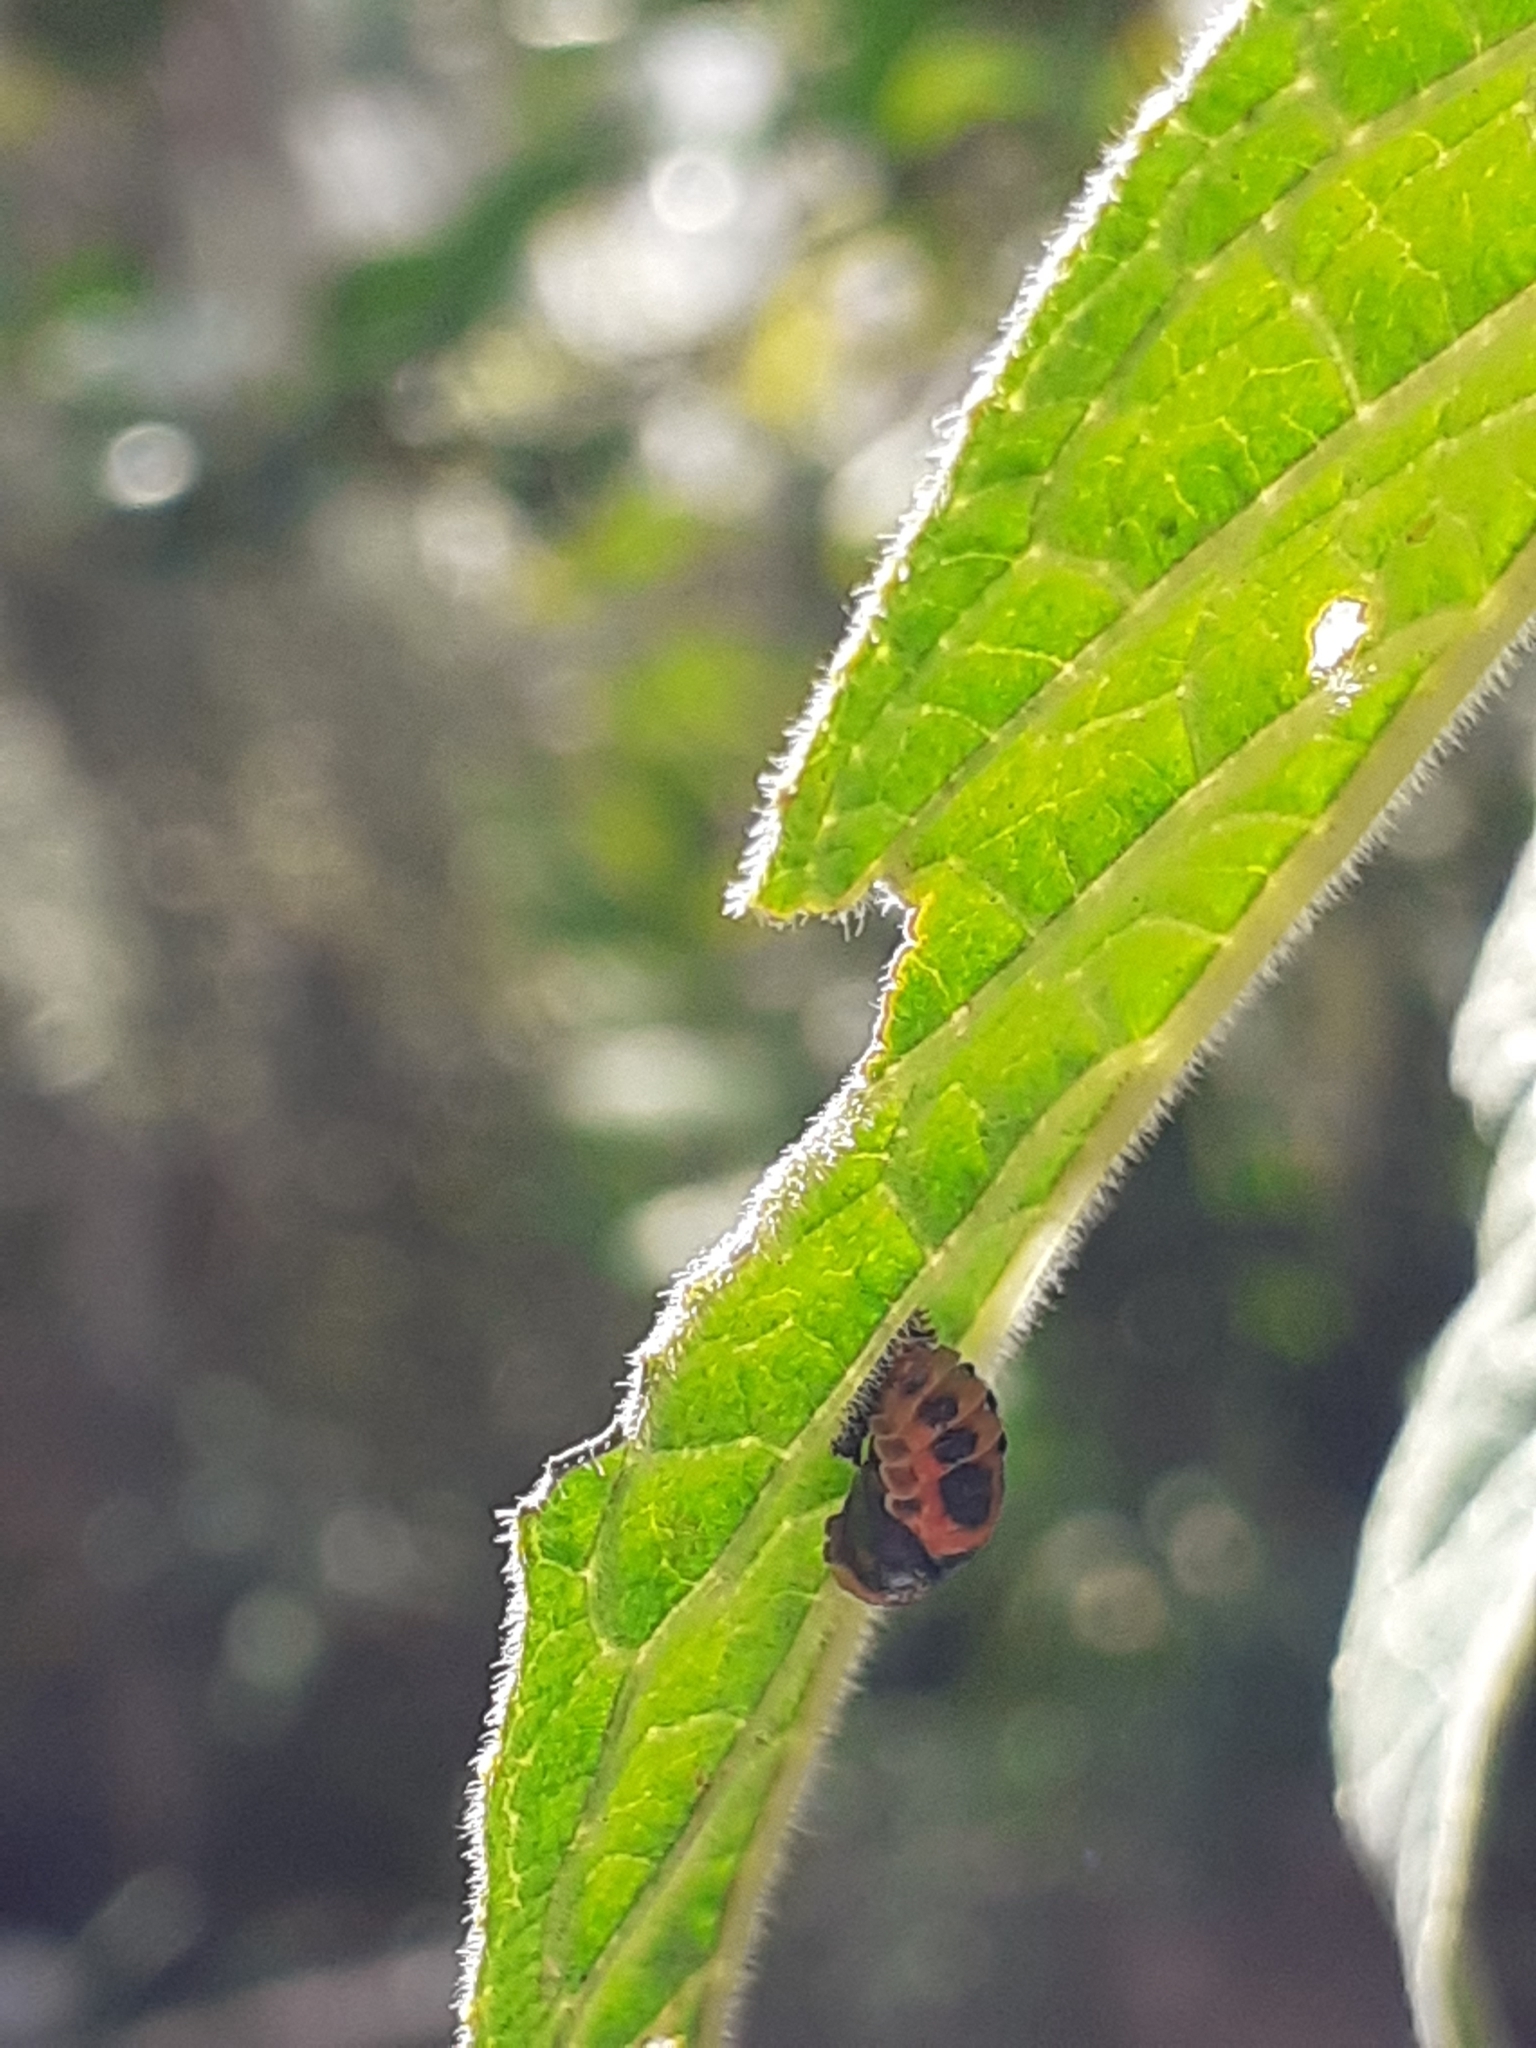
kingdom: Animalia
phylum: Arthropoda
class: Insecta
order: Coleoptera
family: Coccinellidae
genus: Harmonia
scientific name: Harmonia axyridis
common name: Harlequin ladybird
